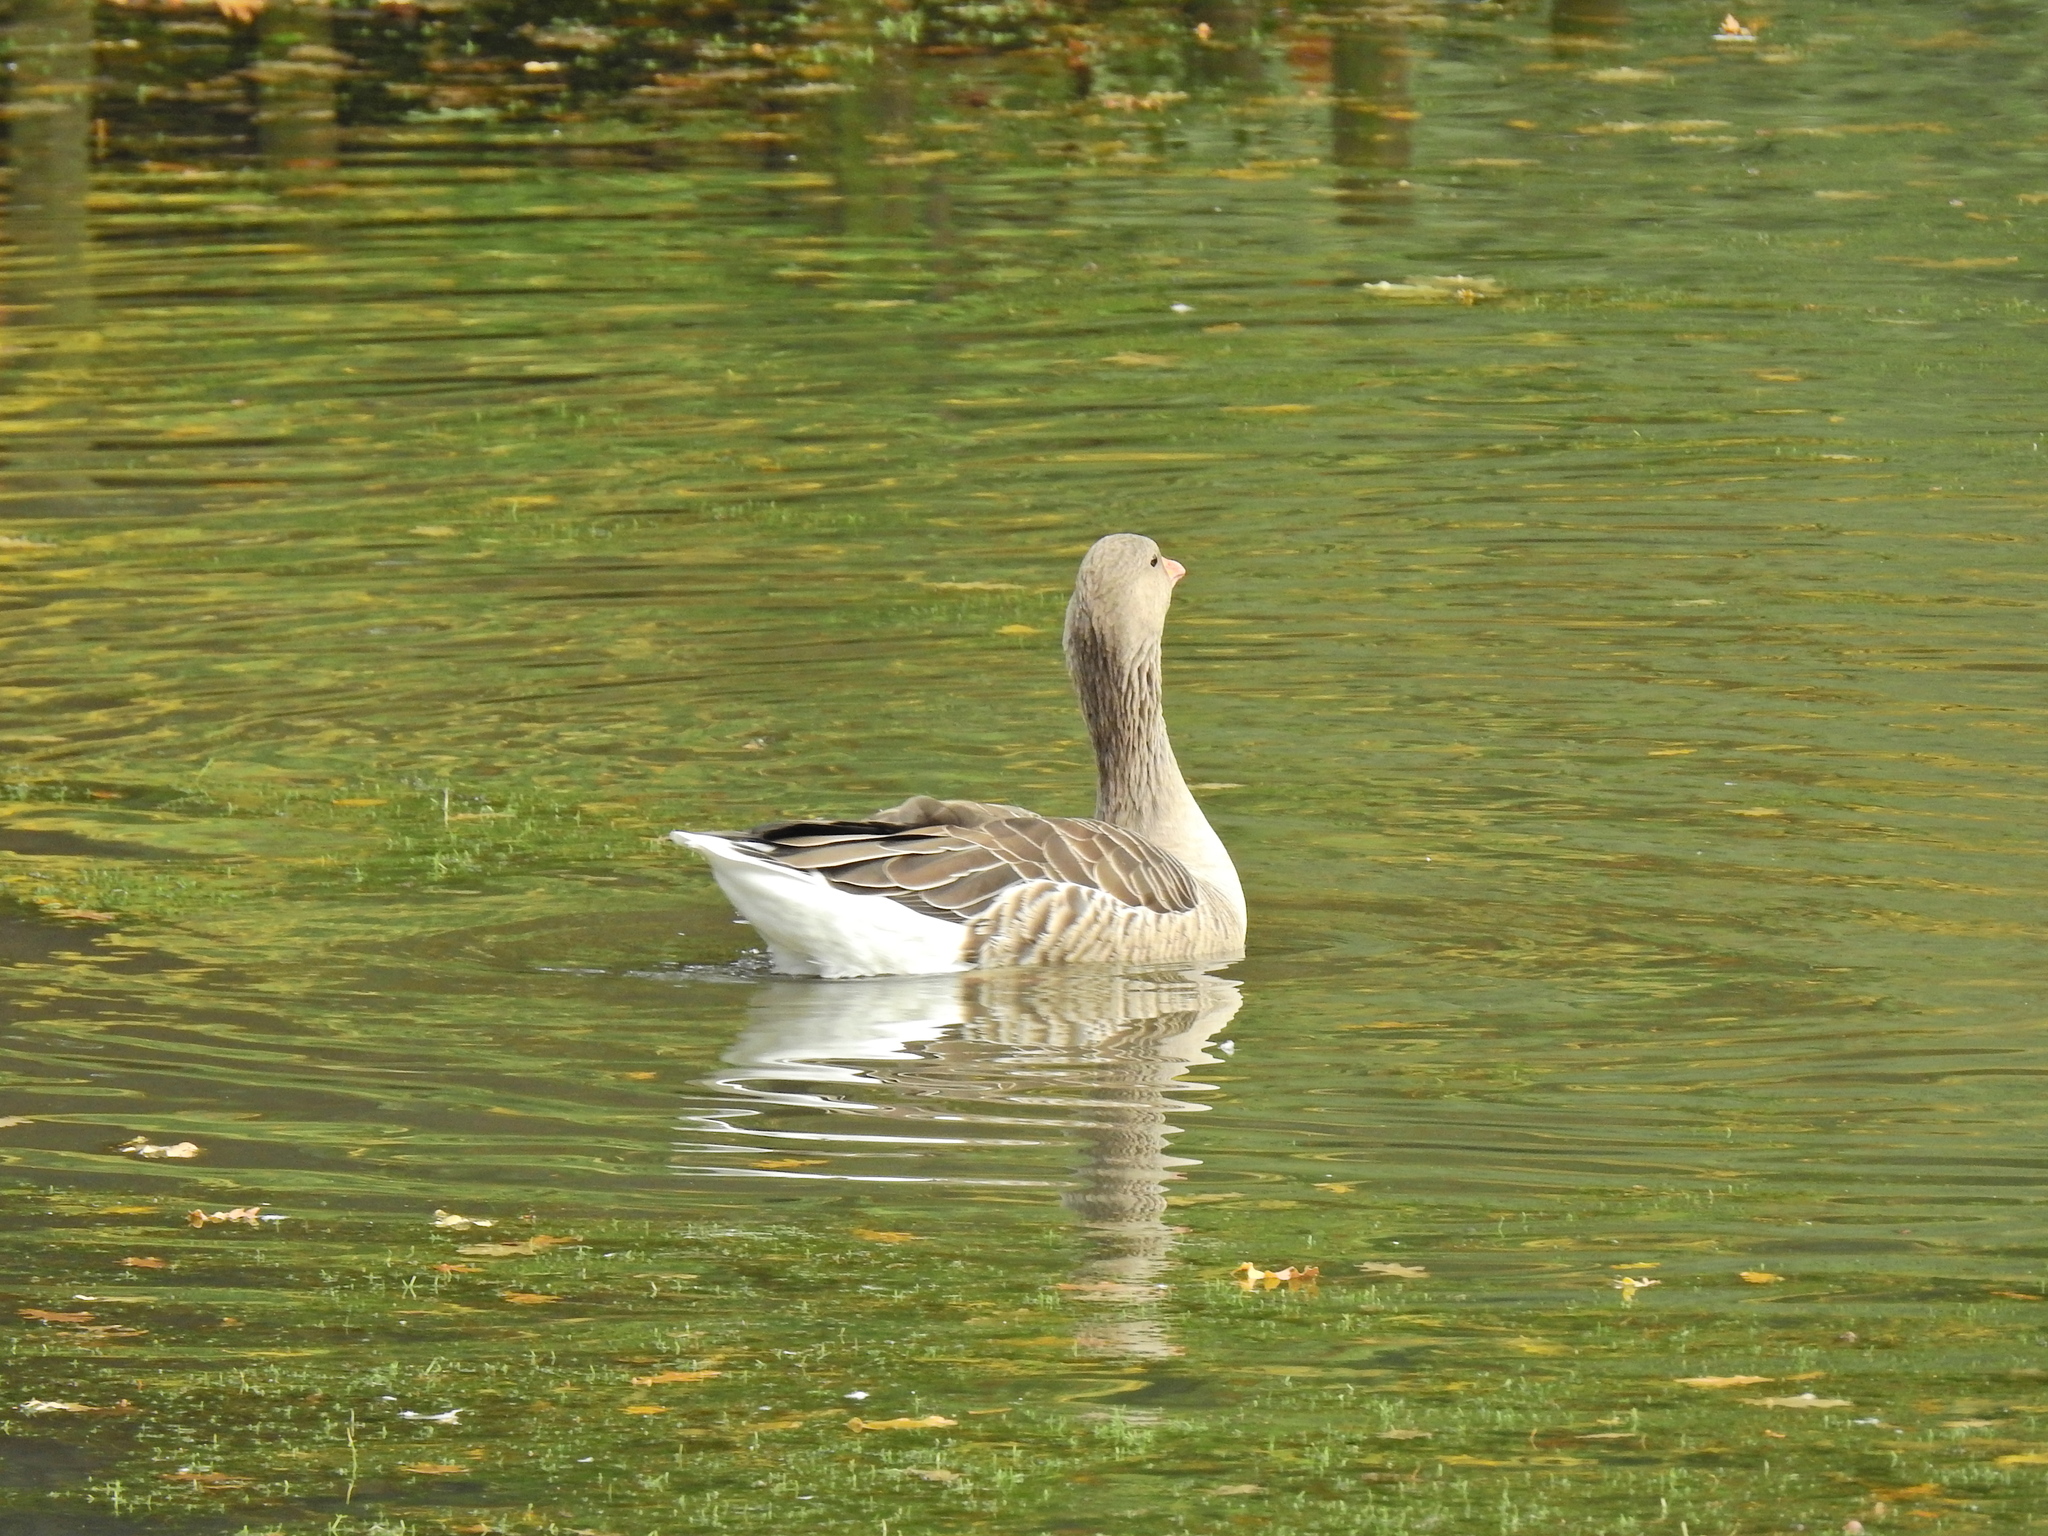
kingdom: Animalia
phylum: Chordata
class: Aves
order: Anseriformes
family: Anatidae
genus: Anser
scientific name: Anser anser
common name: Greylag goose
